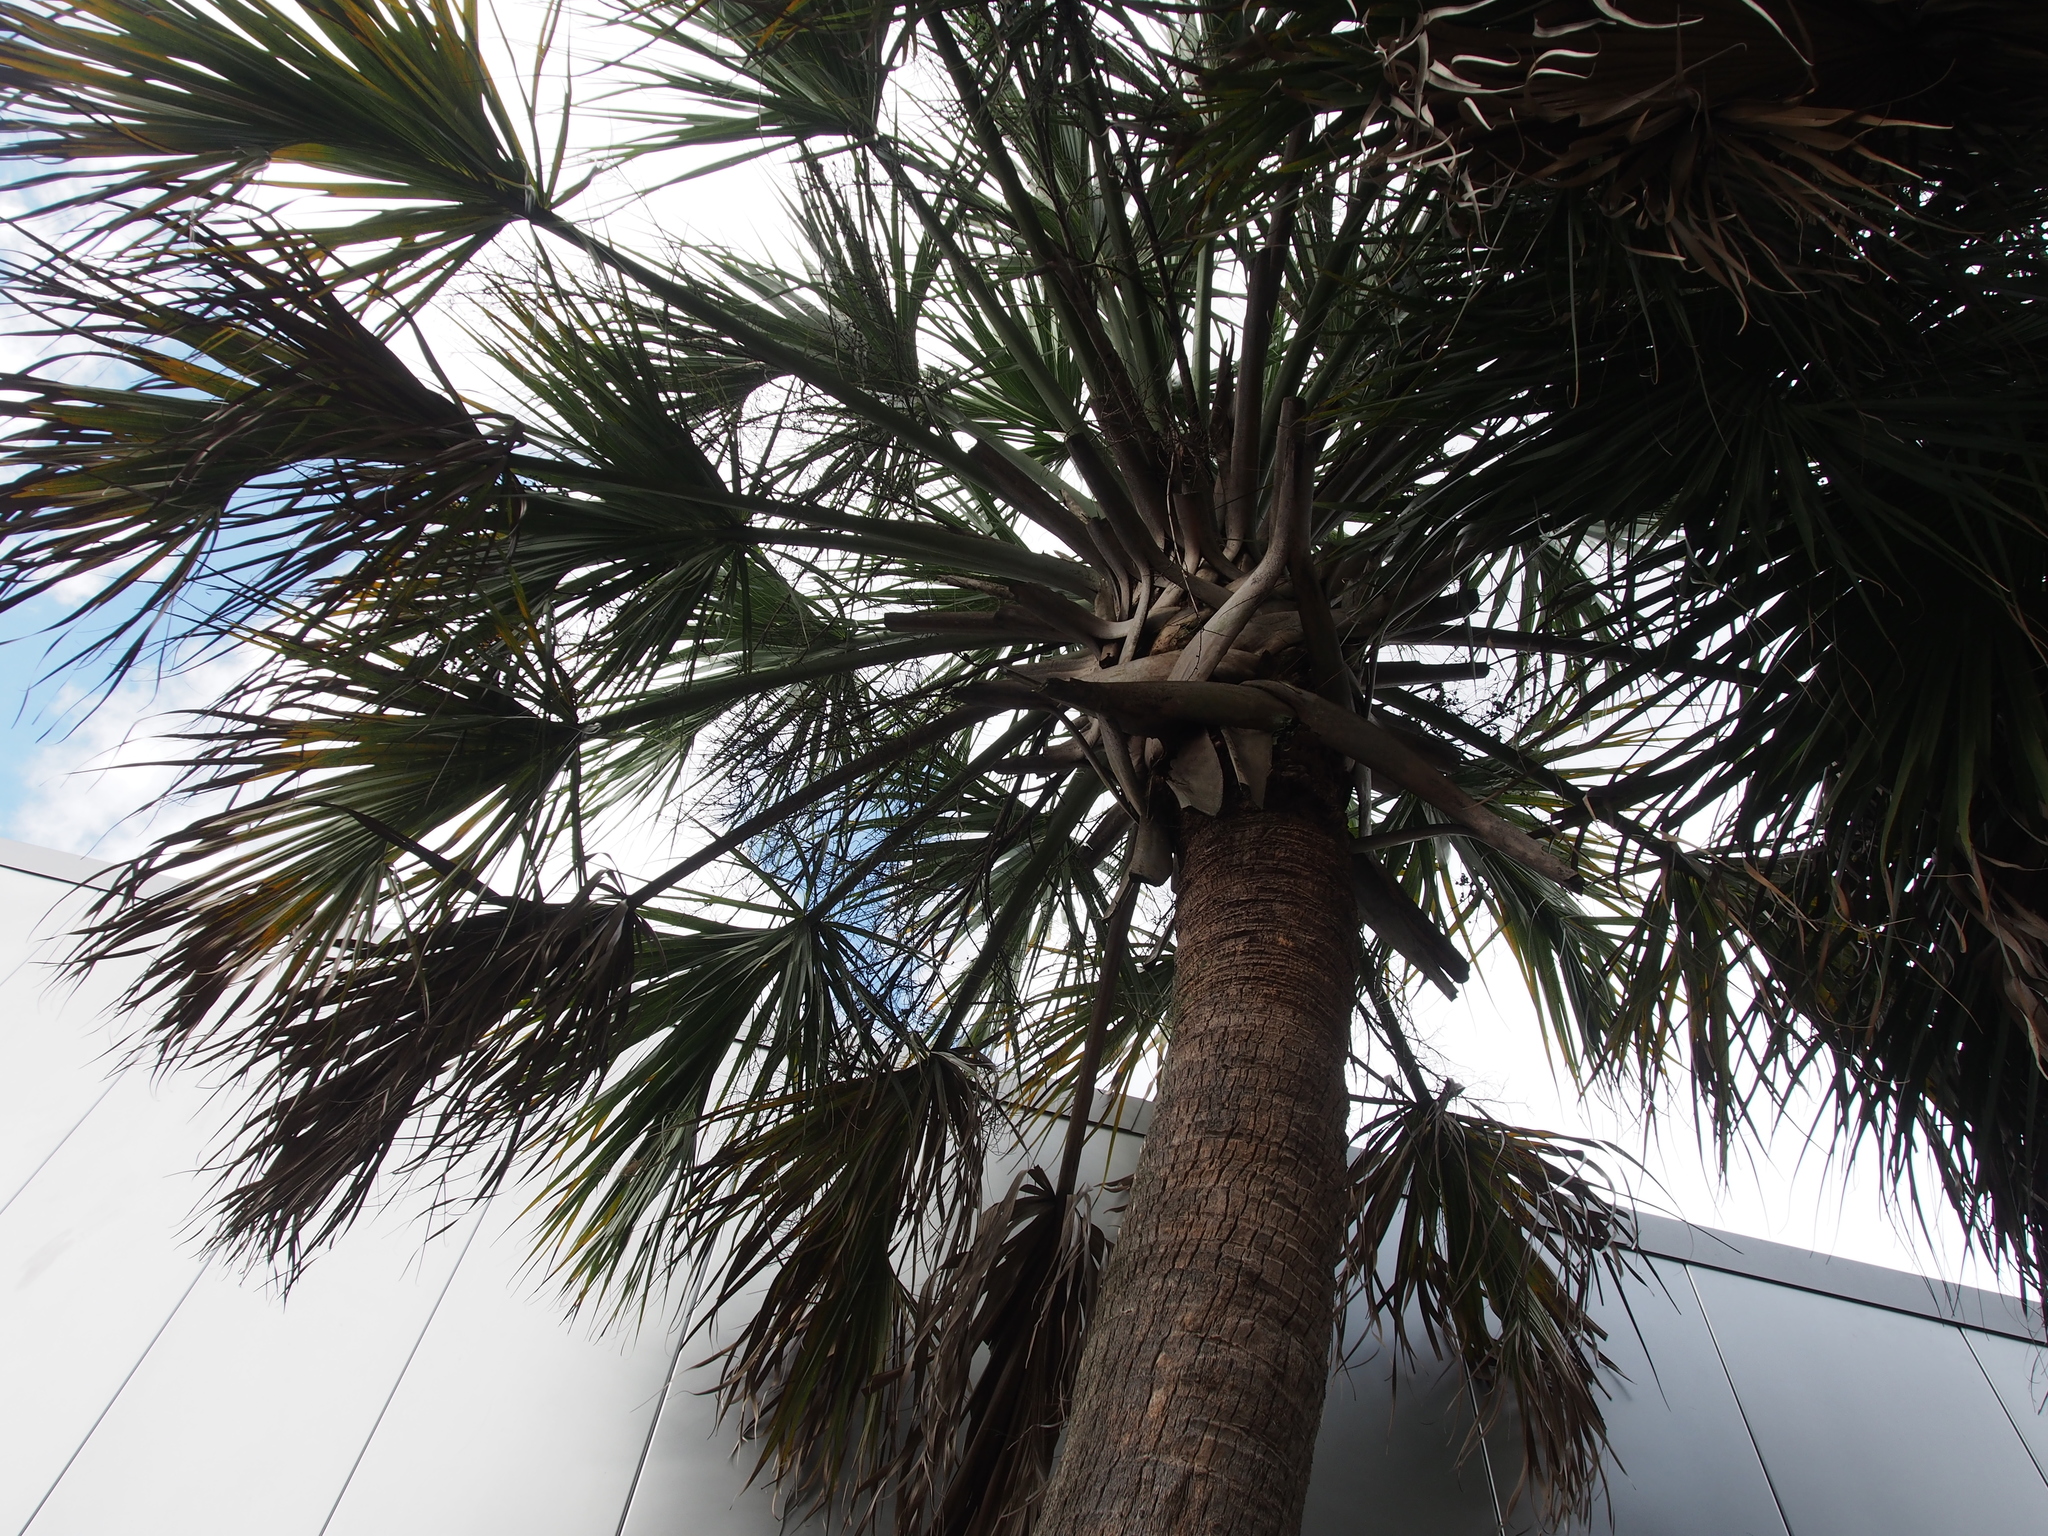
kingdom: Plantae
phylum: Tracheophyta
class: Liliopsida
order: Arecales
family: Arecaceae
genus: Sabal
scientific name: Sabal palmetto
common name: Blue palmetto
